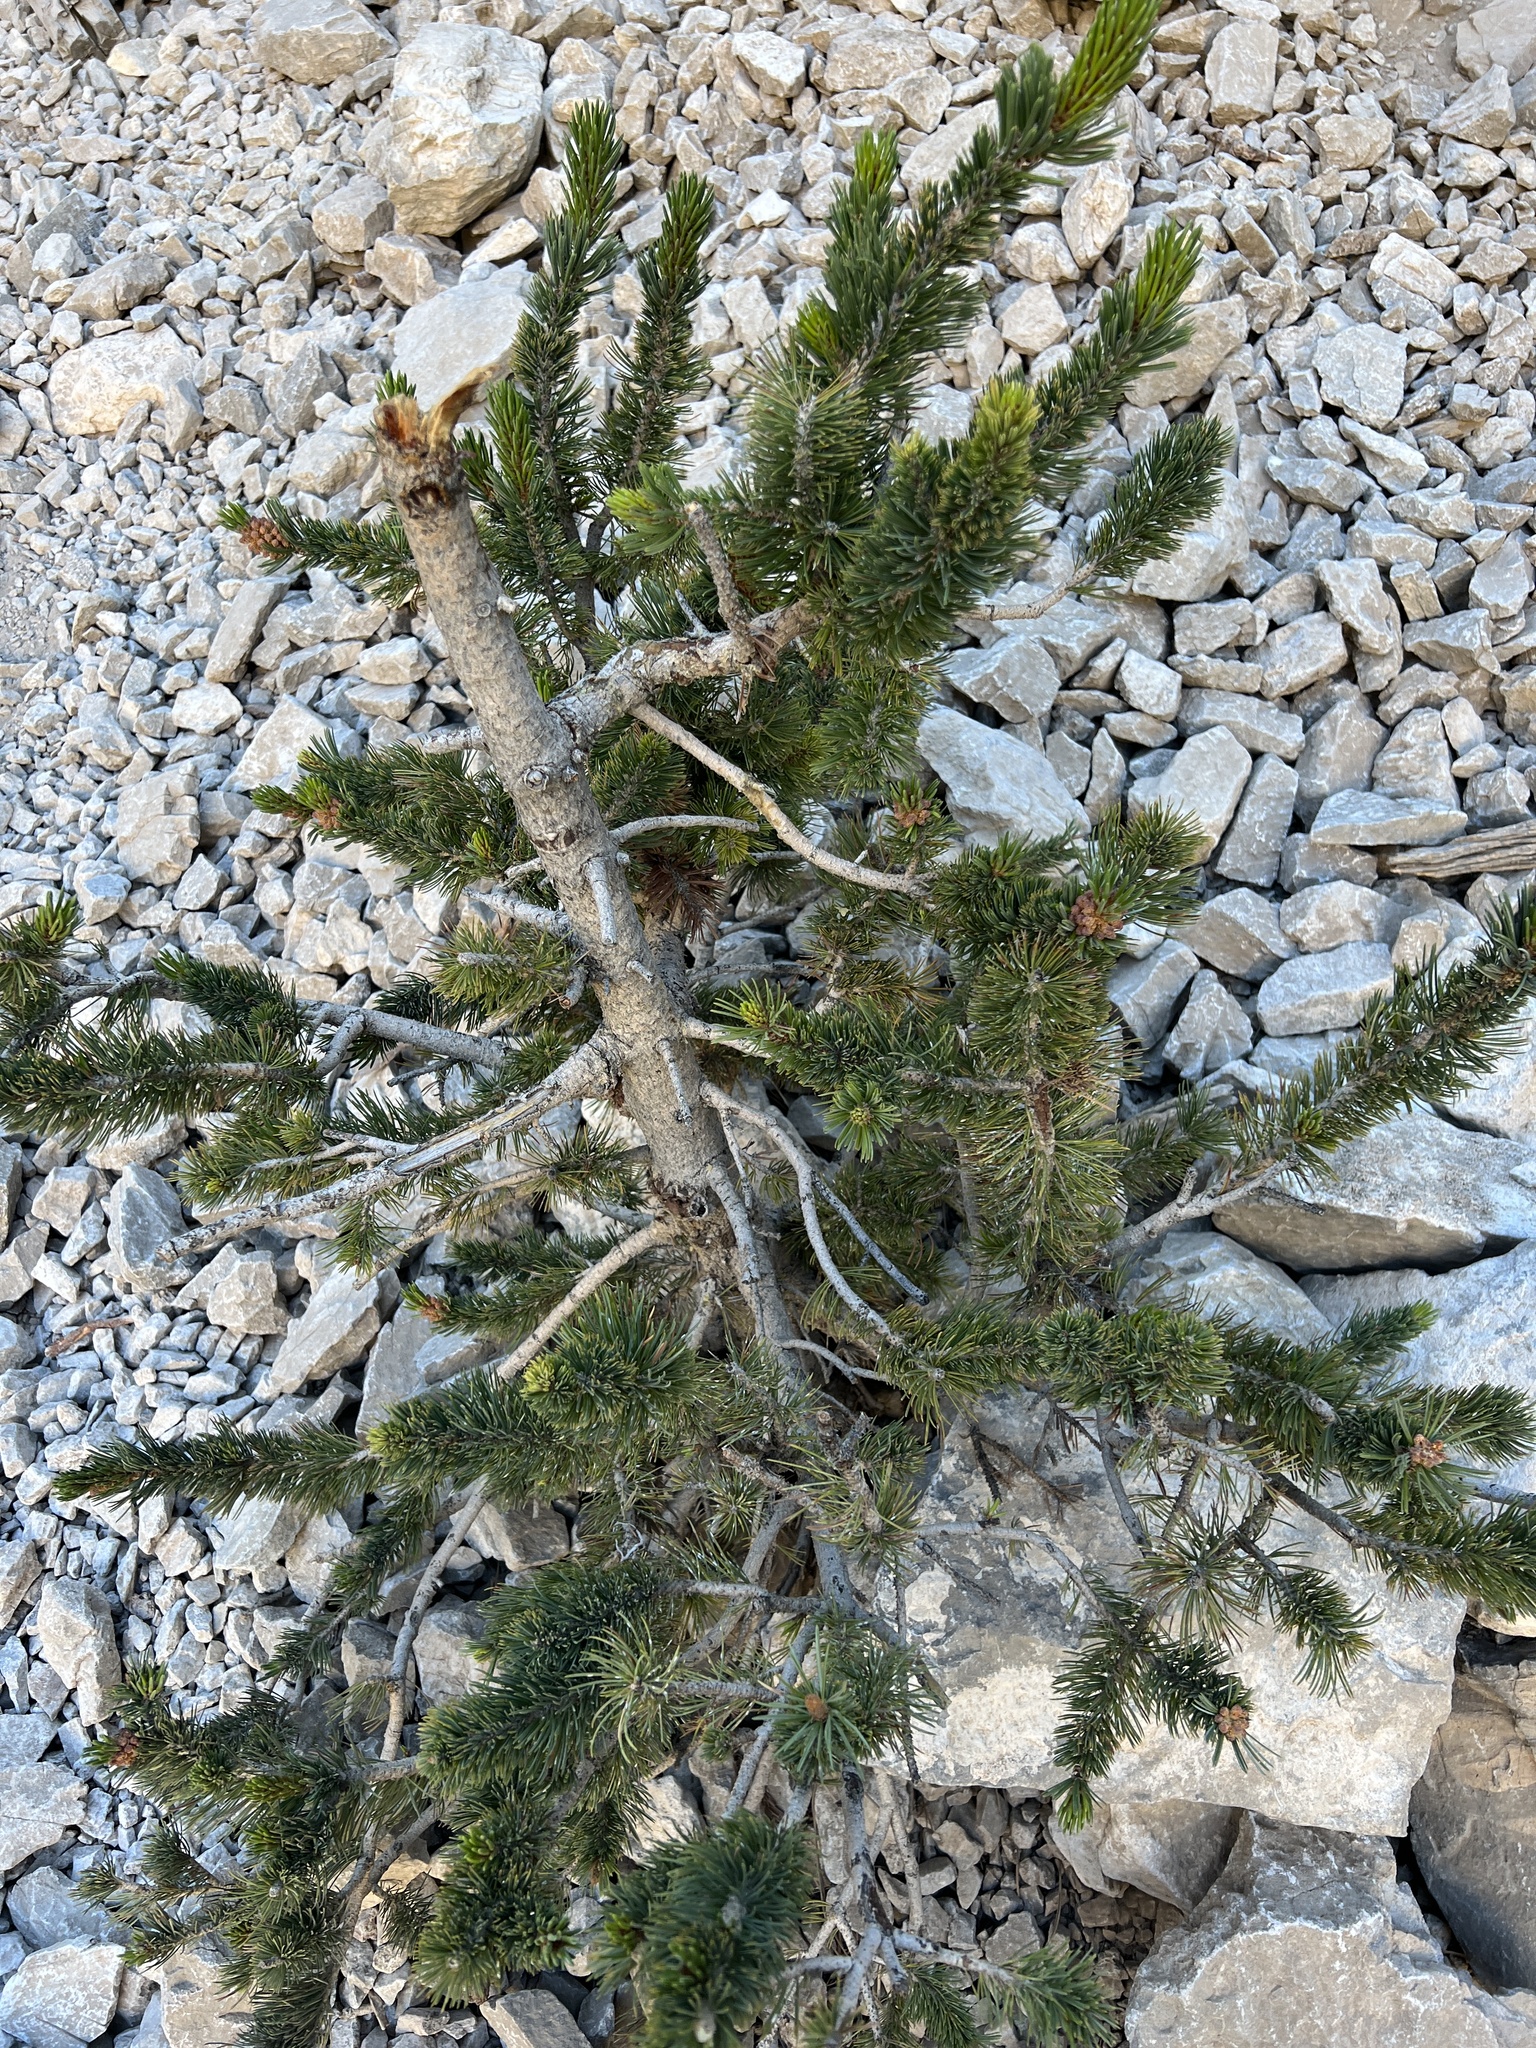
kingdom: Plantae
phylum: Tracheophyta
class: Pinopsida
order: Pinales
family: Pinaceae
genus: Pinus
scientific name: Pinus longaeva
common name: Intermountain bristlecone pine
